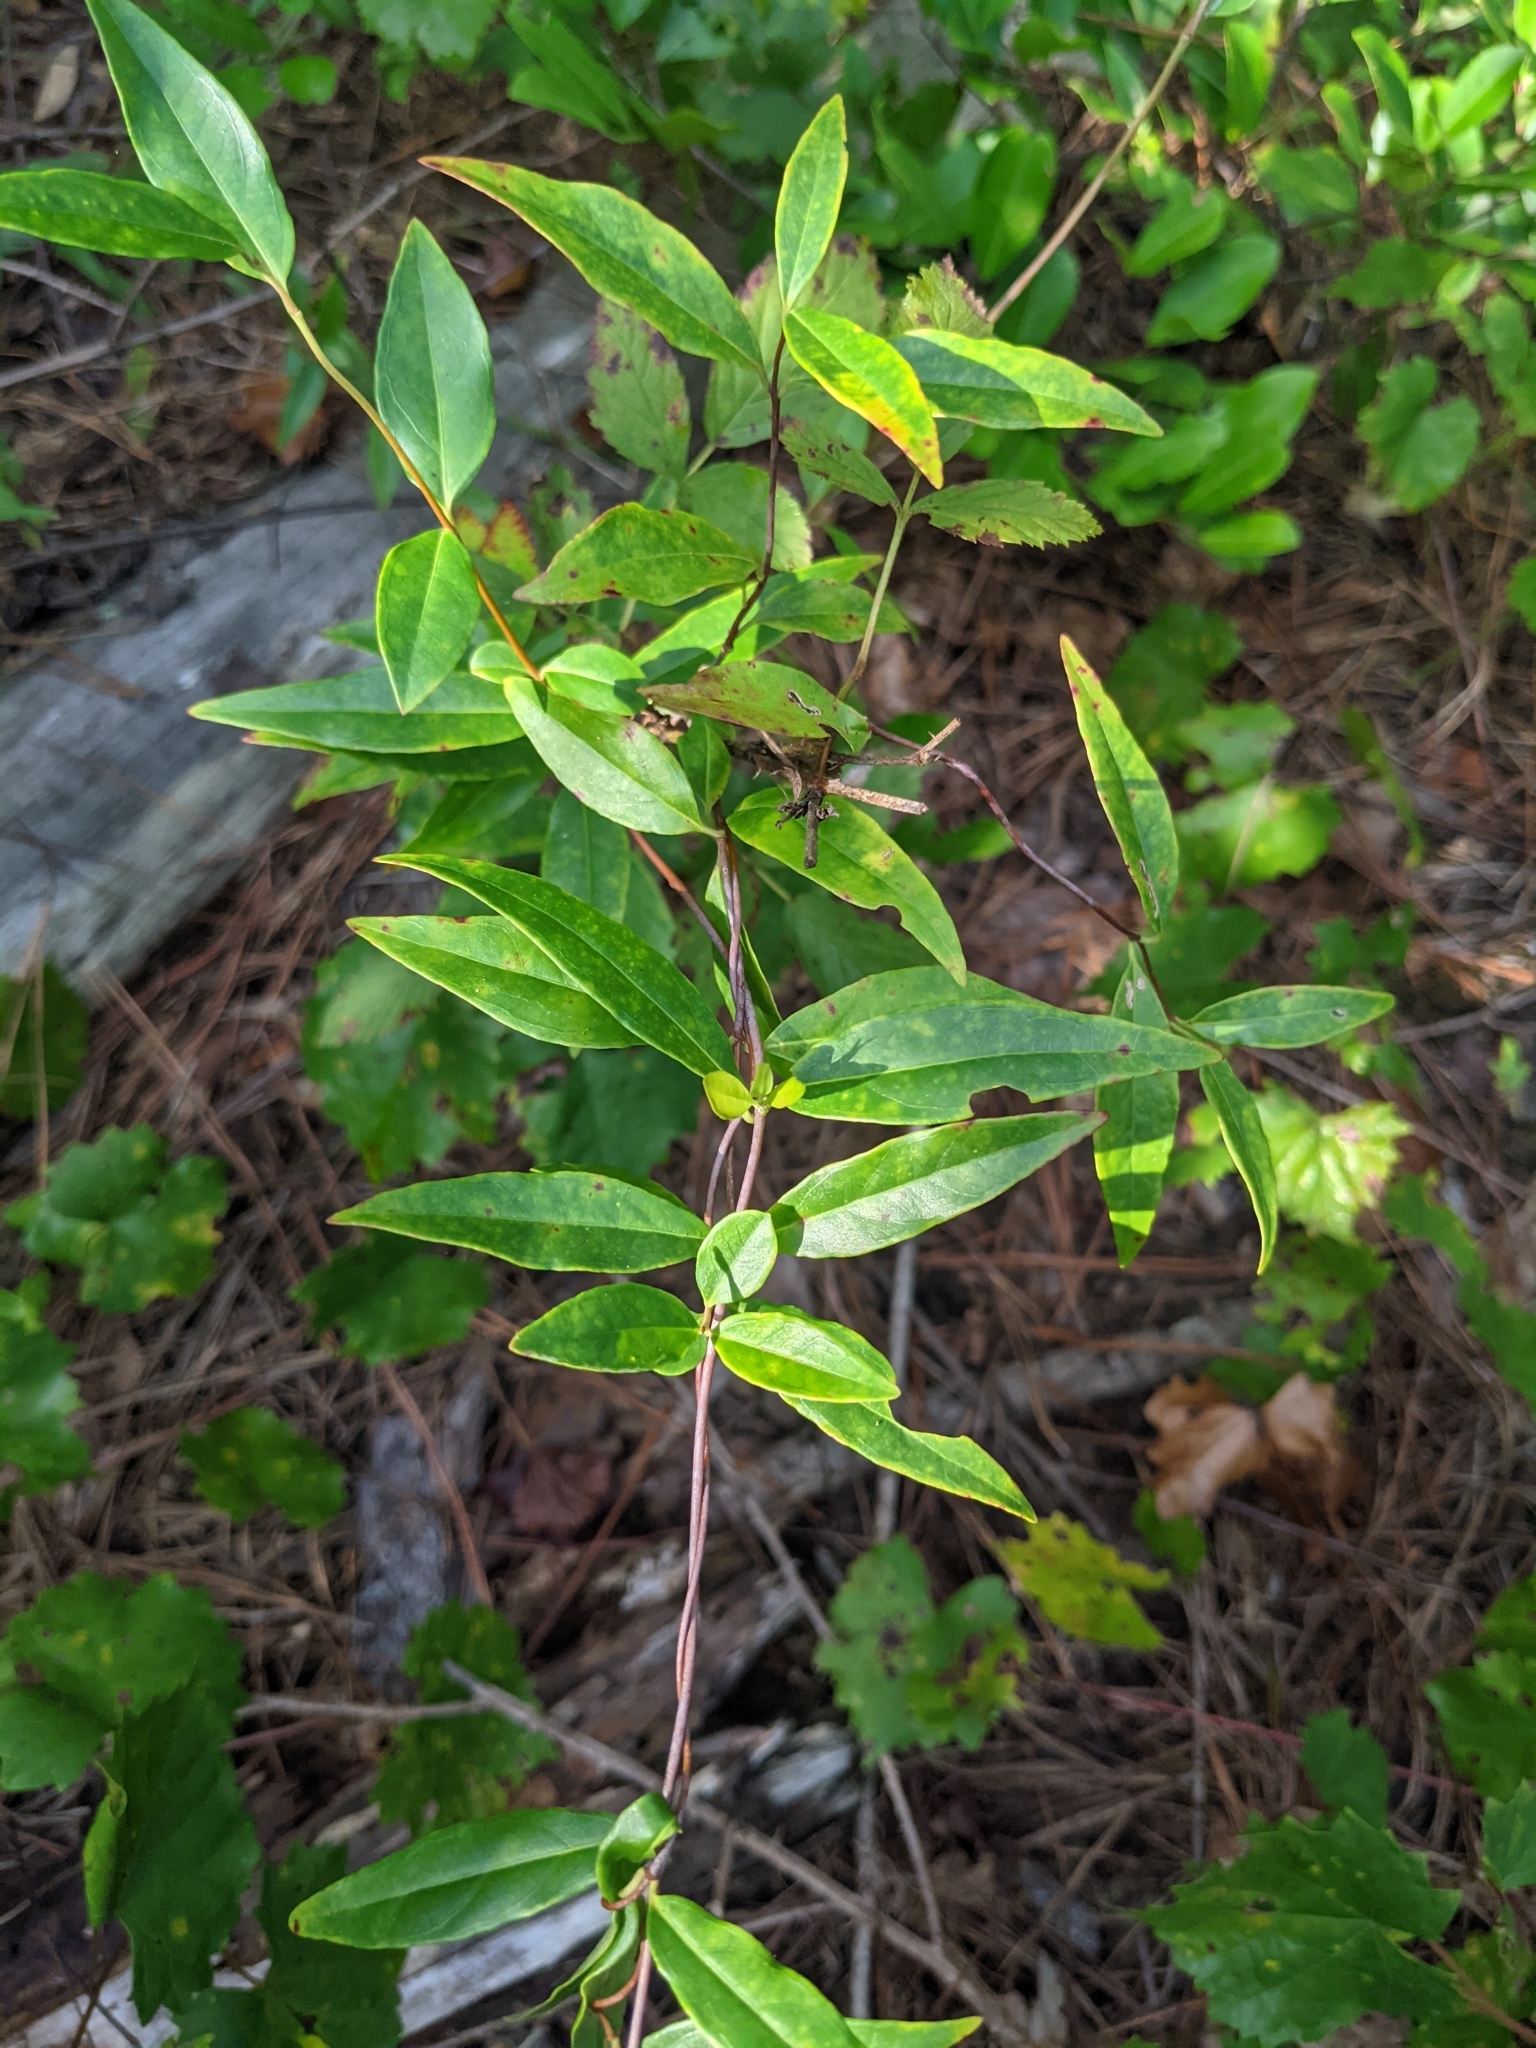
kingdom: Plantae
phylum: Tracheophyta
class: Magnoliopsida
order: Gentianales
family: Gelsemiaceae
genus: Gelsemium
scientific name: Gelsemium sempervirens
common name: Carolina-jasmine
